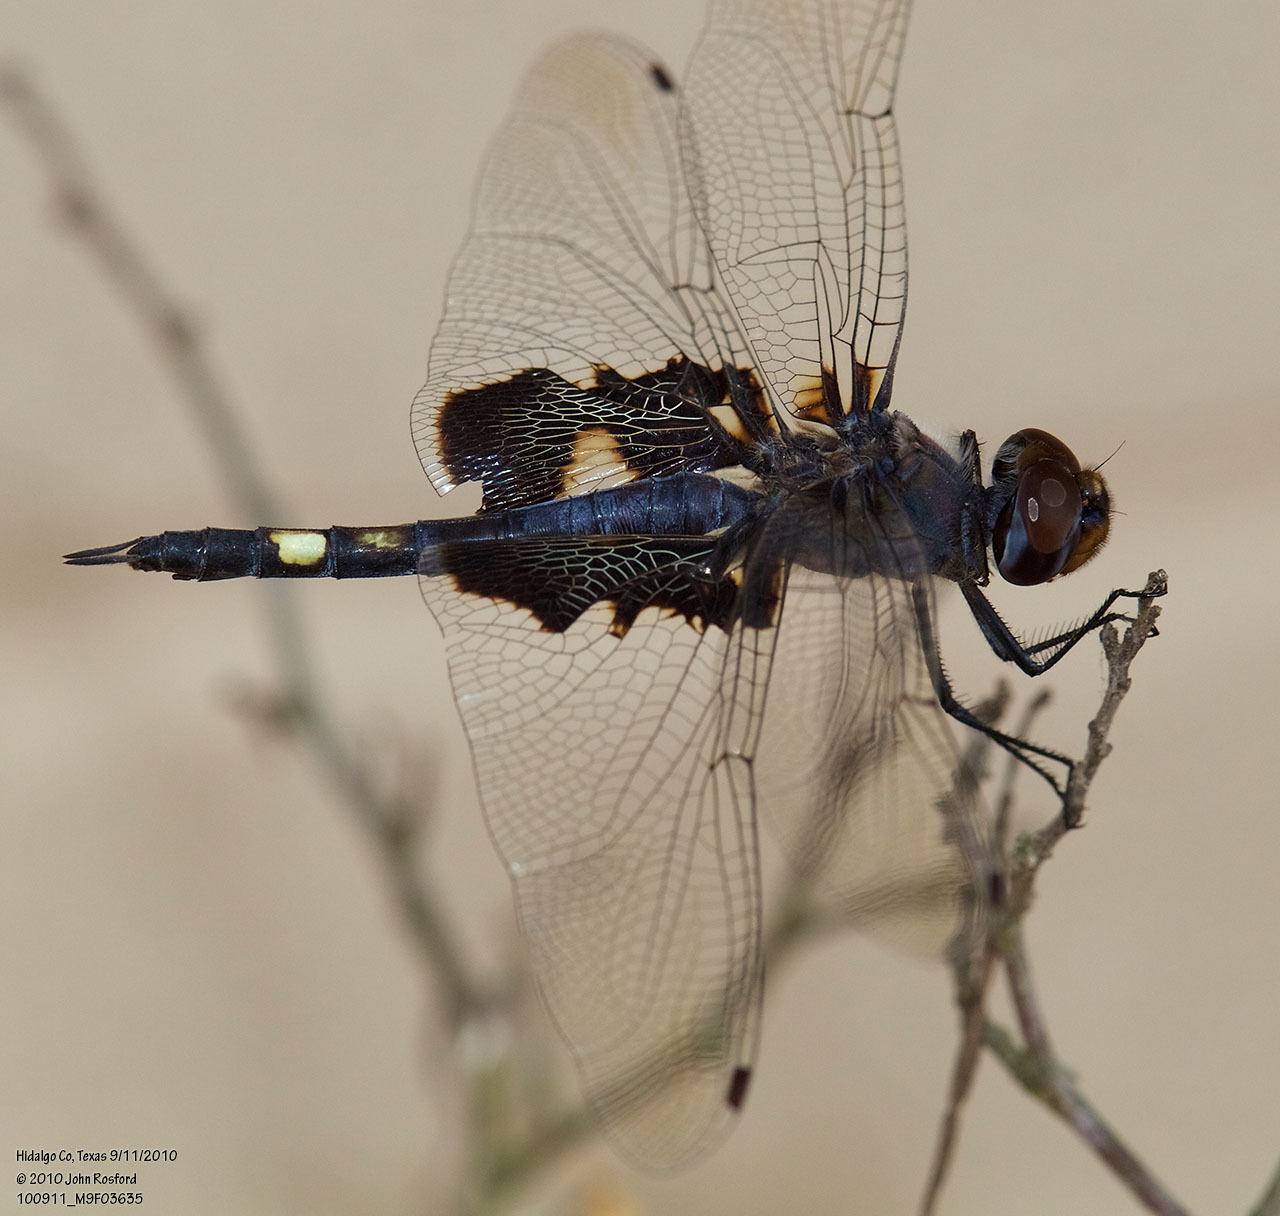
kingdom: Animalia
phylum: Arthropoda
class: Insecta
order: Odonata
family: Libellulidae
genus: Tramea
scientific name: Tramea lacerata
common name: Black saddlebags
